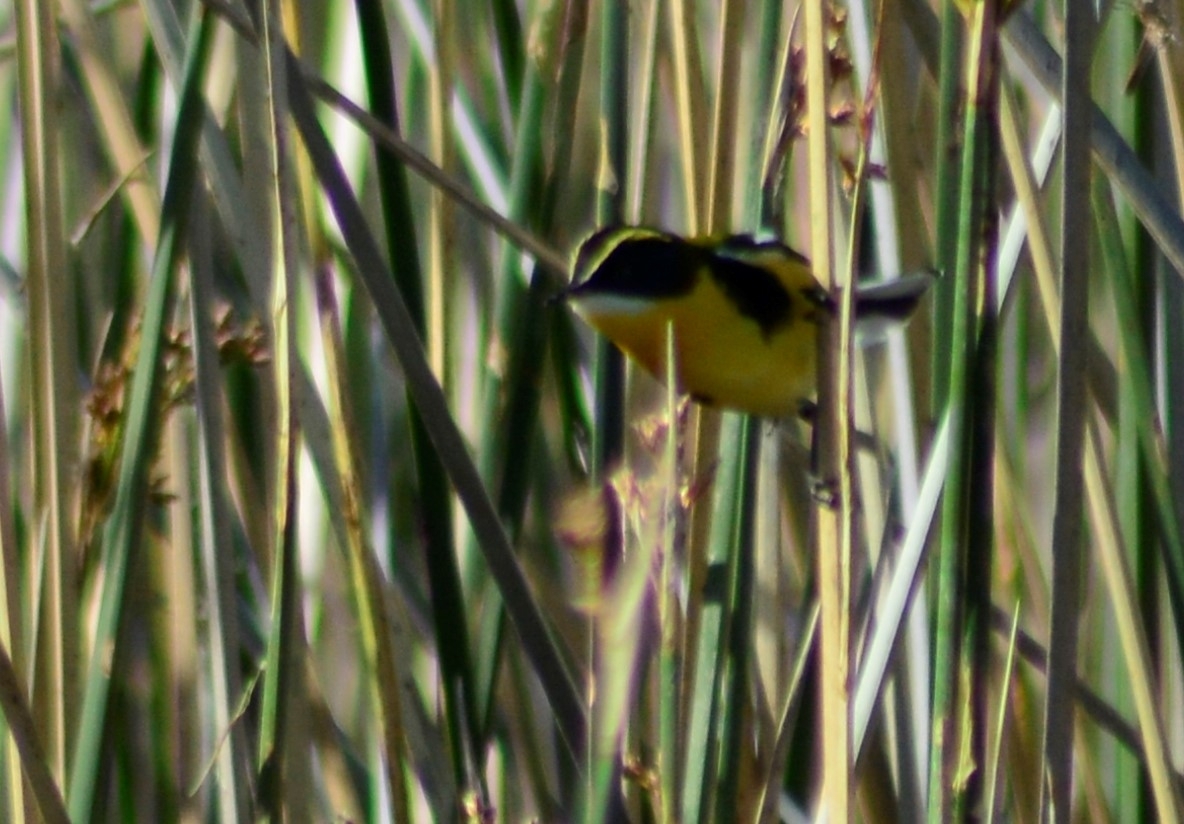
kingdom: Animalia
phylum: Chordata
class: Aves
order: Passeriformes
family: Tyrannidae
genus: Tachuris
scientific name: Tachuris rubrigastra
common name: Many-colored rush tyrant
